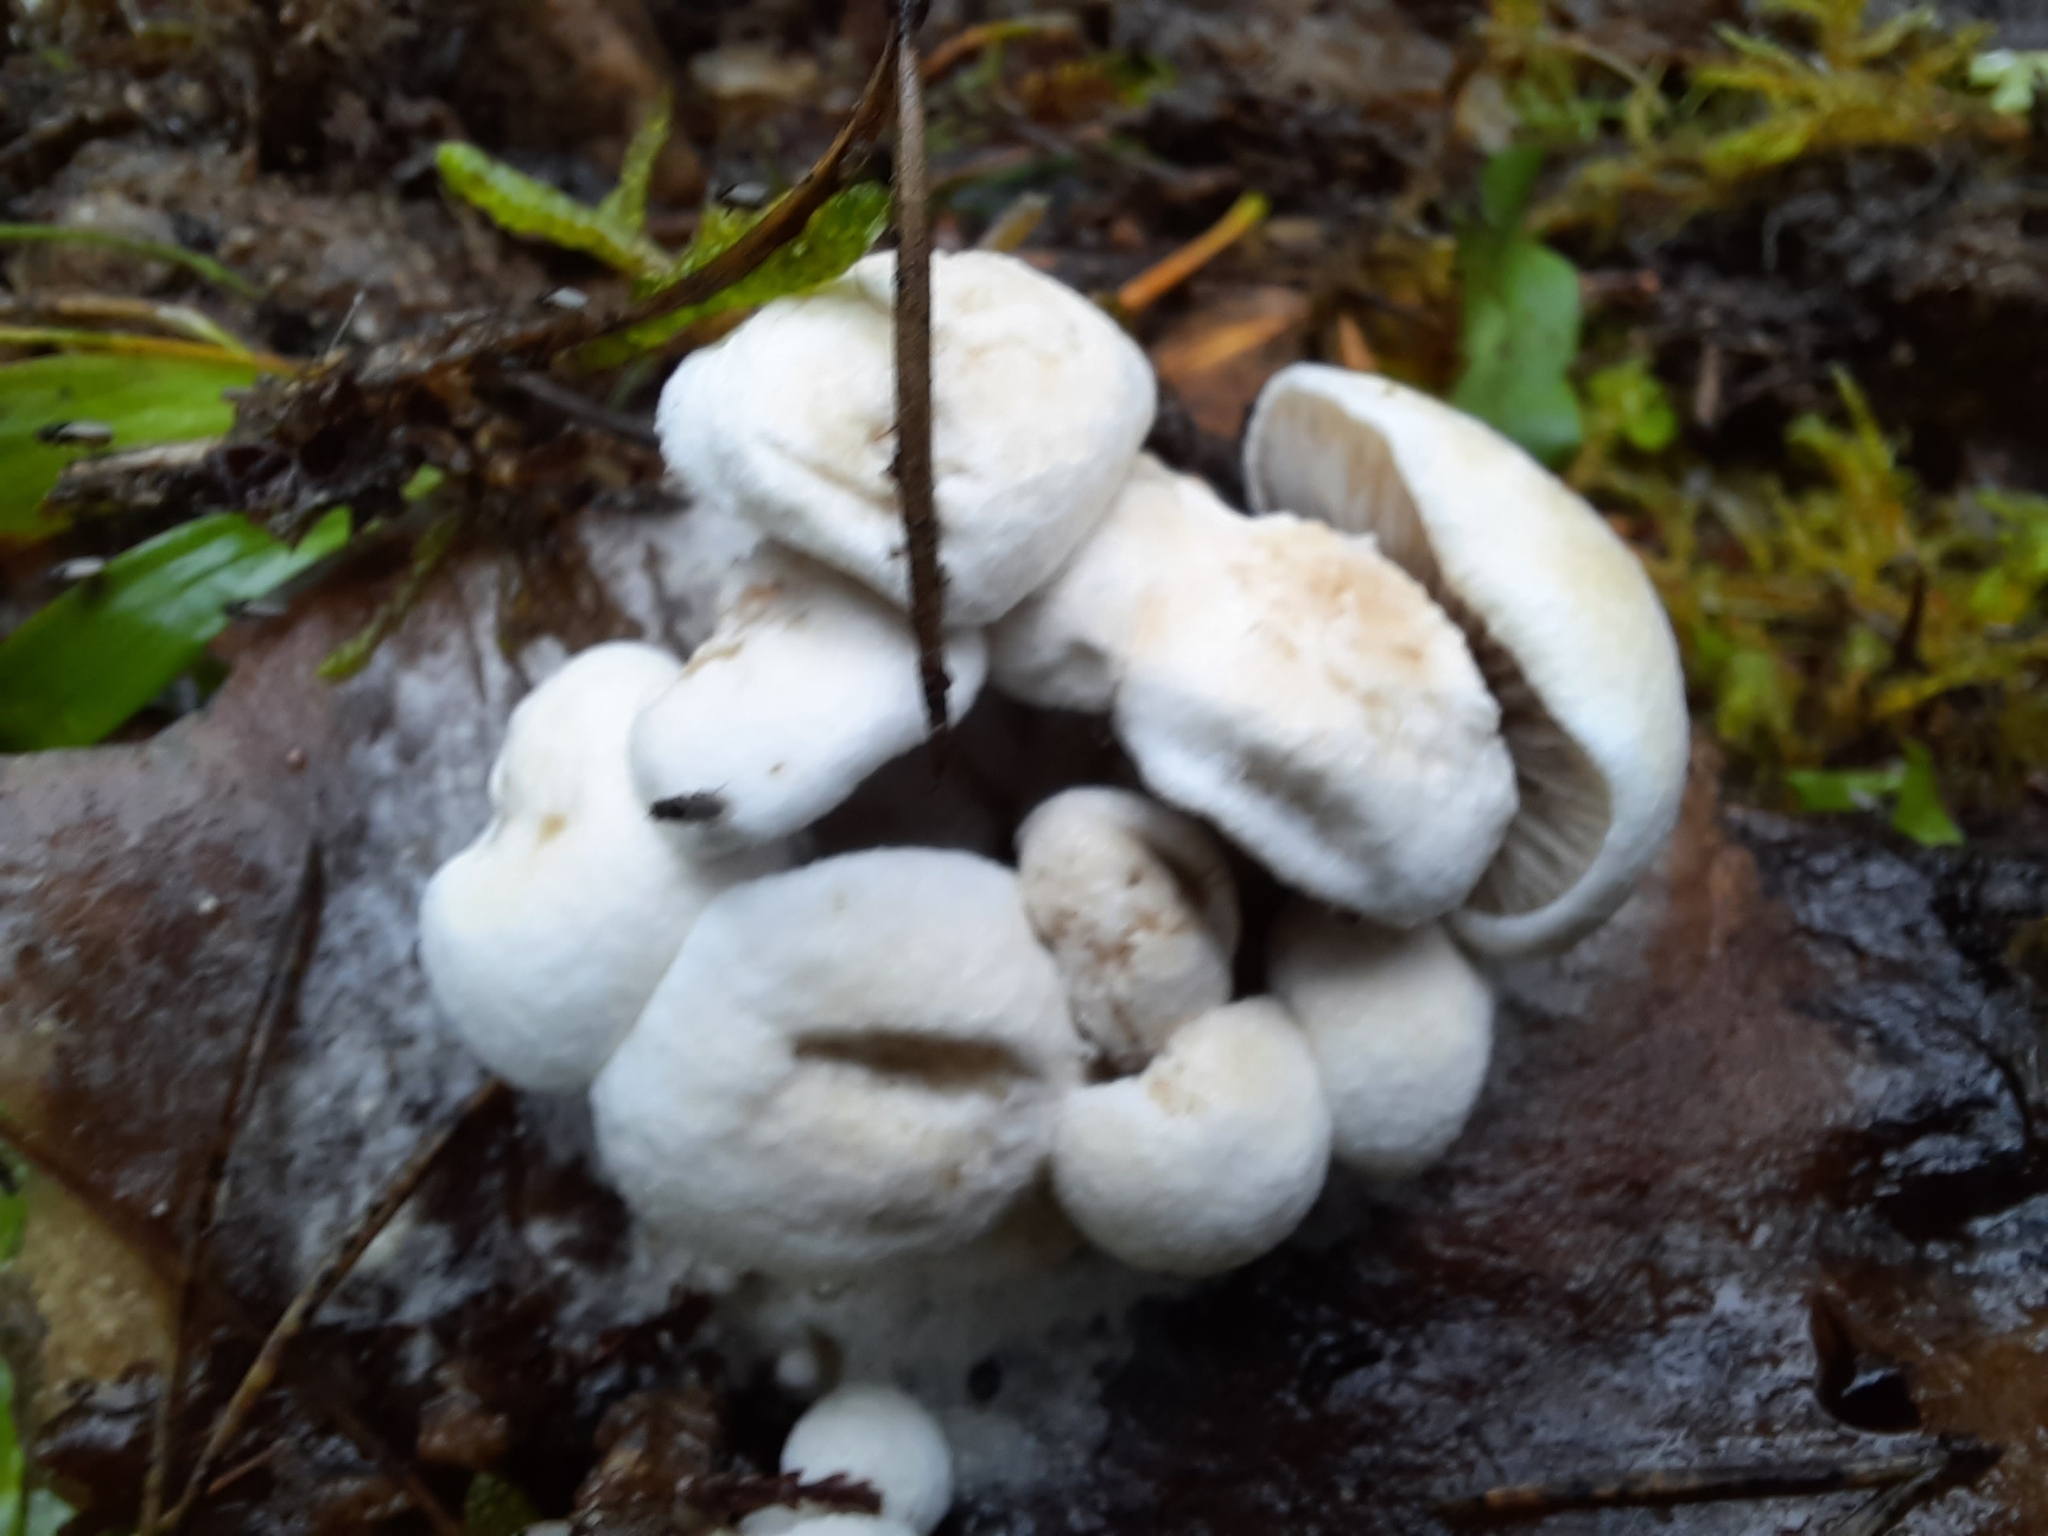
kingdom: Fungi
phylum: Basidiomycota
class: Agaricomycetes
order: Agaricales
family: Lyophyllaceae
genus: Asterophora
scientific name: Asterophora lycoperdoides
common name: Pick-a-back toadstool
